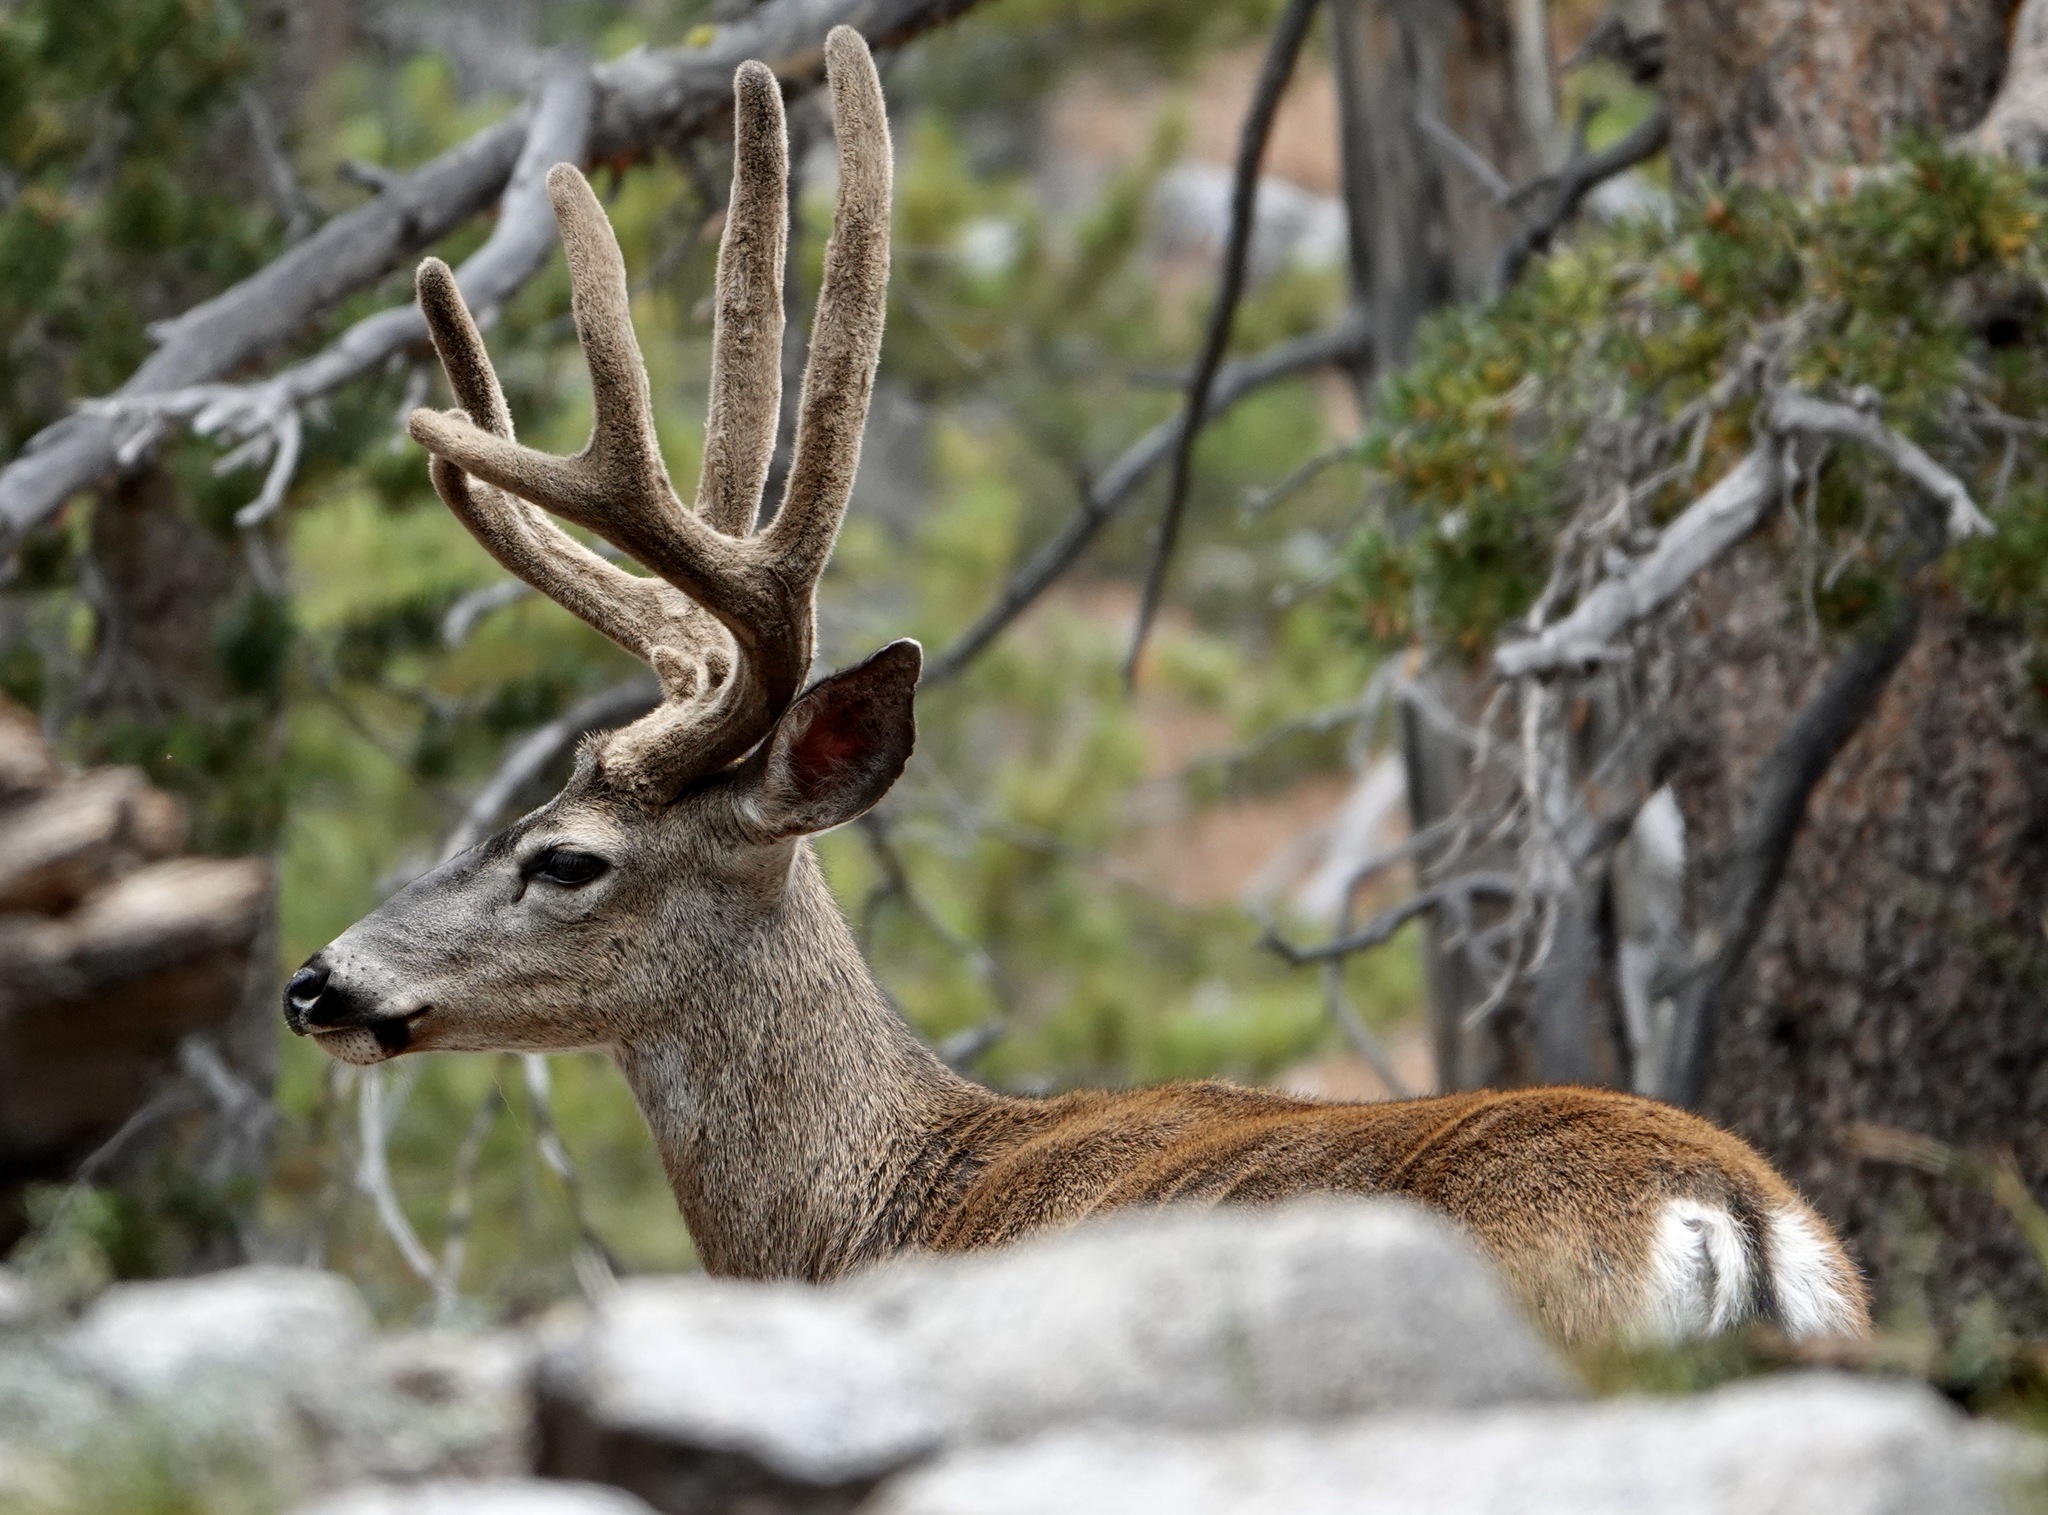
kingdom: Animalia
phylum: Chordata
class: Mammalia
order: Artiodactyla
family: Cervidae
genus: Odocoileus
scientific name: Odocoileus hemionus
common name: Mule deer
